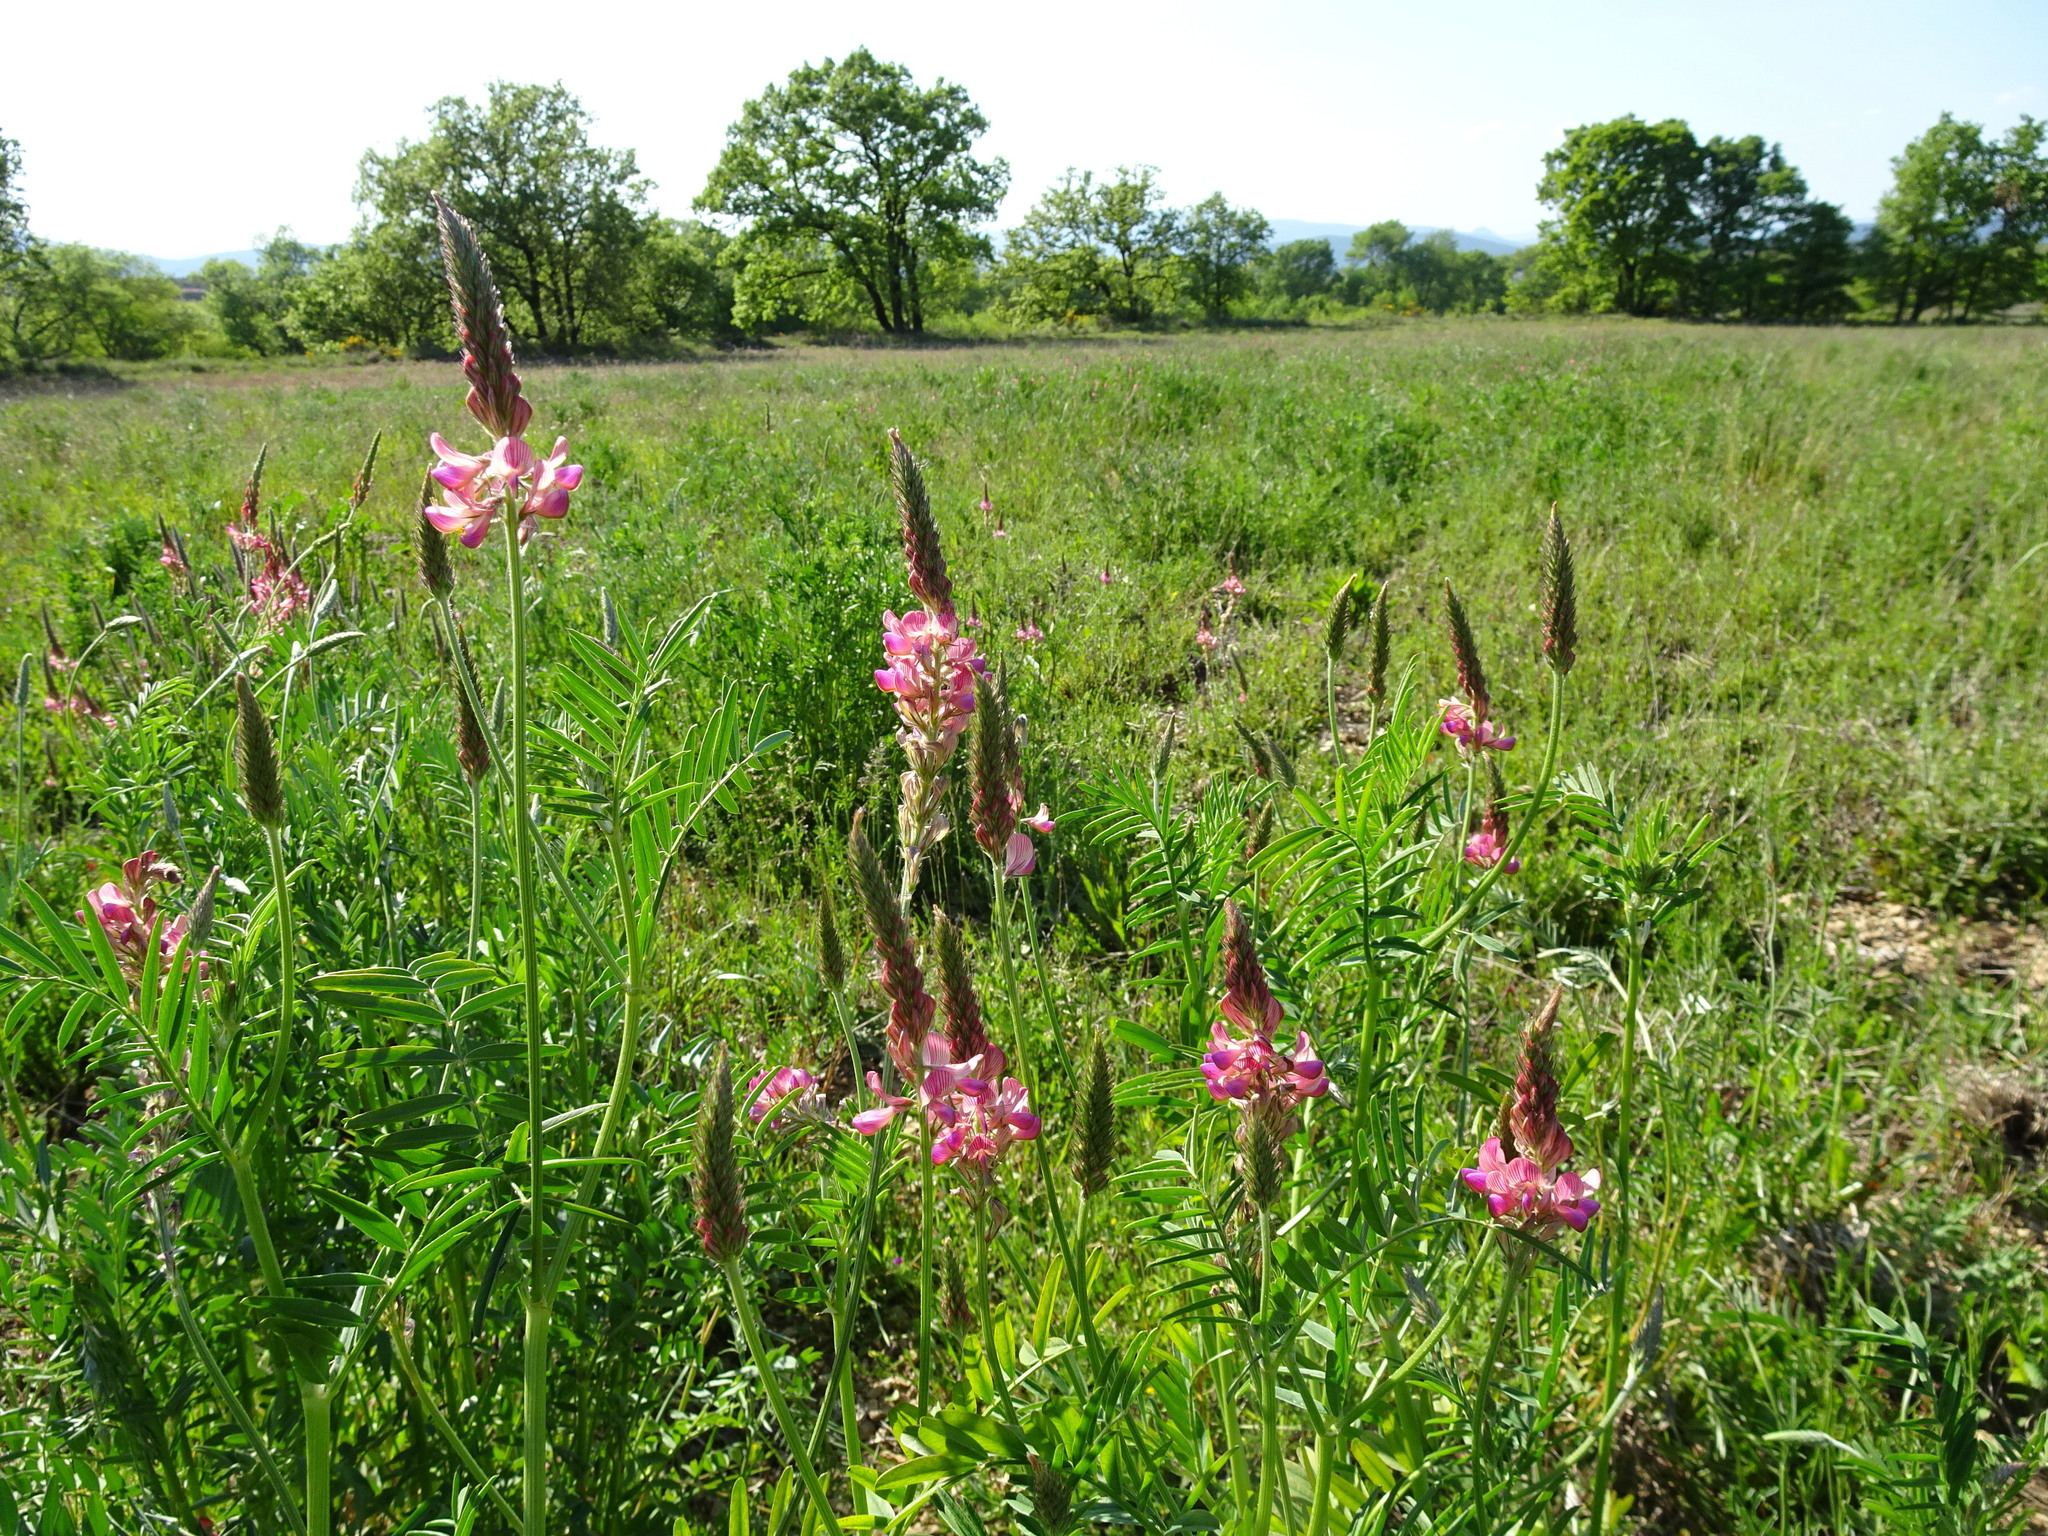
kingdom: Plantae
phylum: Tracheophyta
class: Magnoliopsida
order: Fabales
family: Fabaceae
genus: Onobrychis
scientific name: Onobrychis viciifolia
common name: Sainfoin
